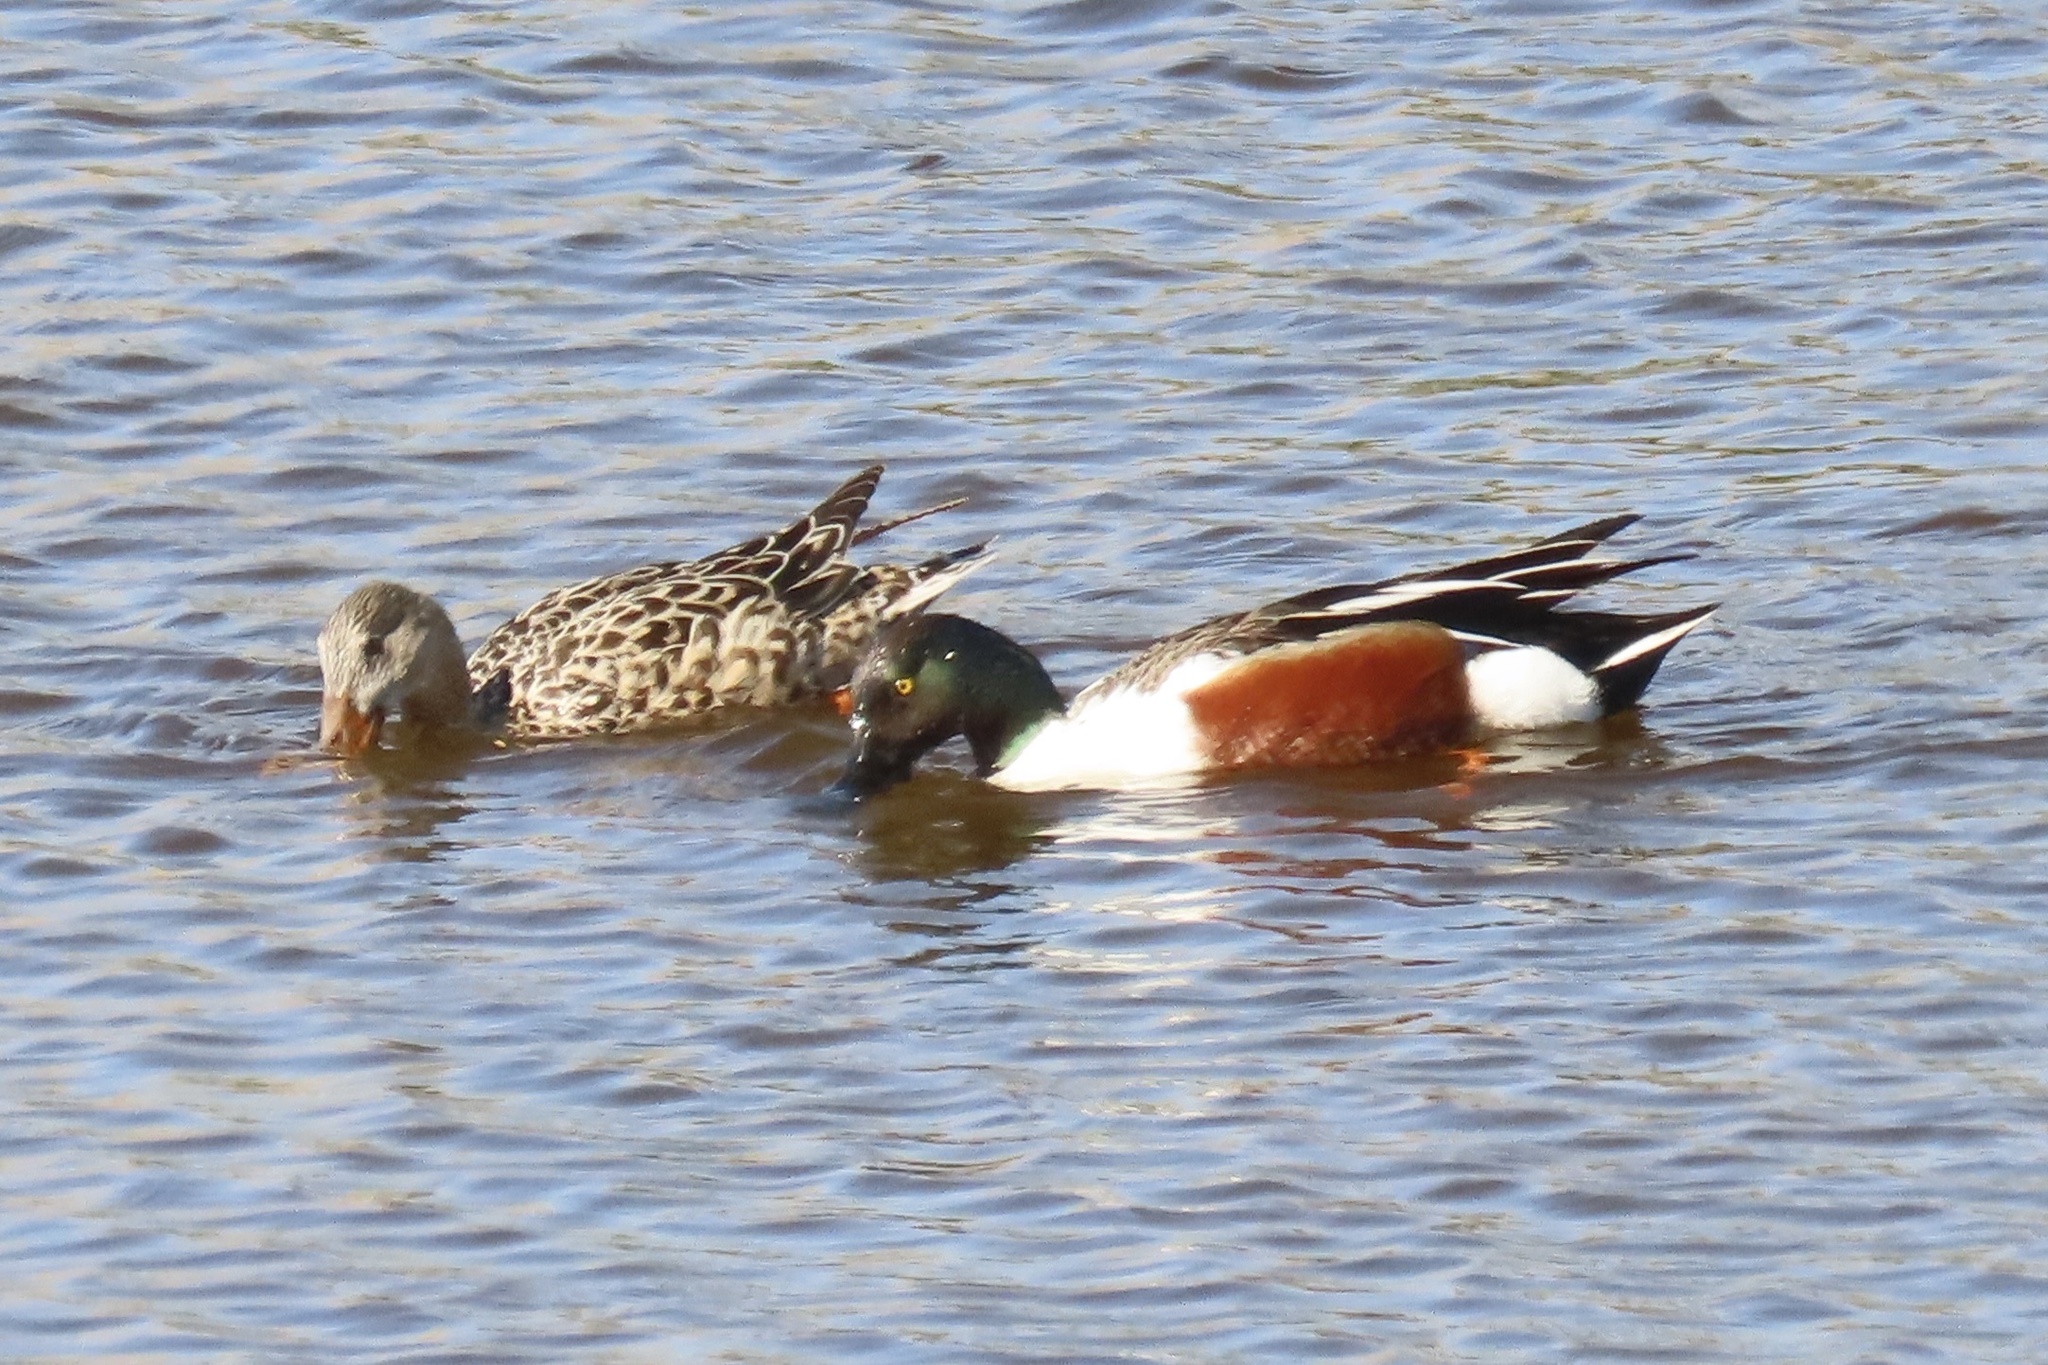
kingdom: Animalia
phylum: Chordata
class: Aves
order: Anseriformes
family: Anatidae
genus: Spatula
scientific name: Spatula clypeata
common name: Northern shoveler
